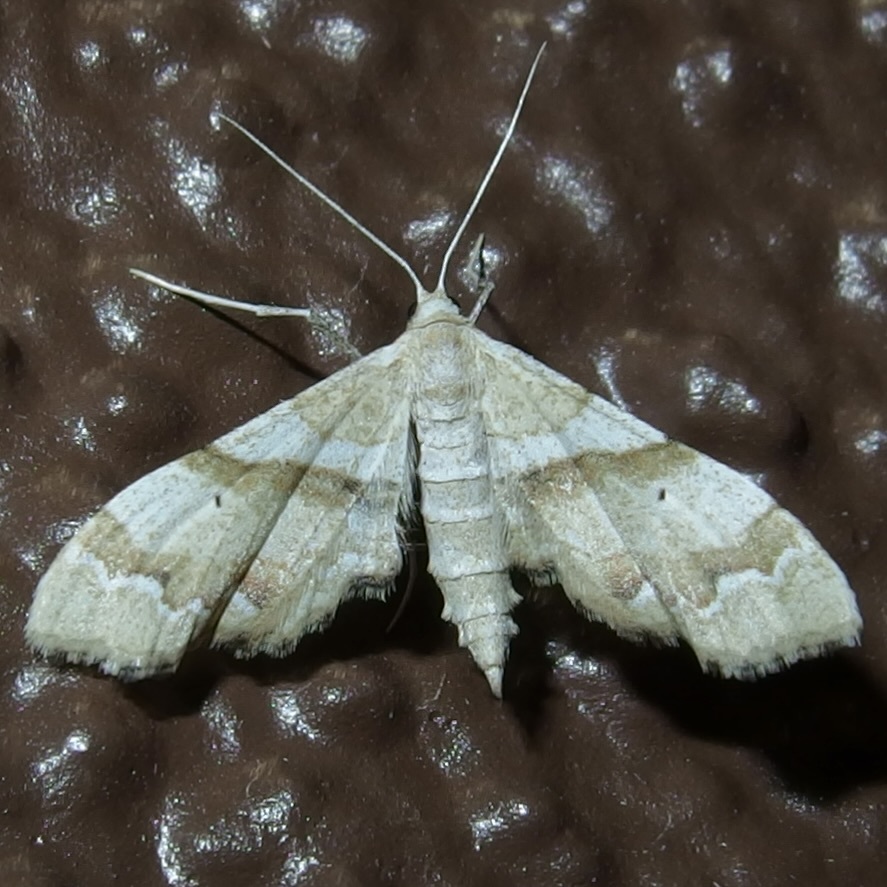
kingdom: Animalia
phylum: Arthropoda
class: Insecta
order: Lepidoptera
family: Geometridae
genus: Odontoptila
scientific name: Odontoptila obrimo
